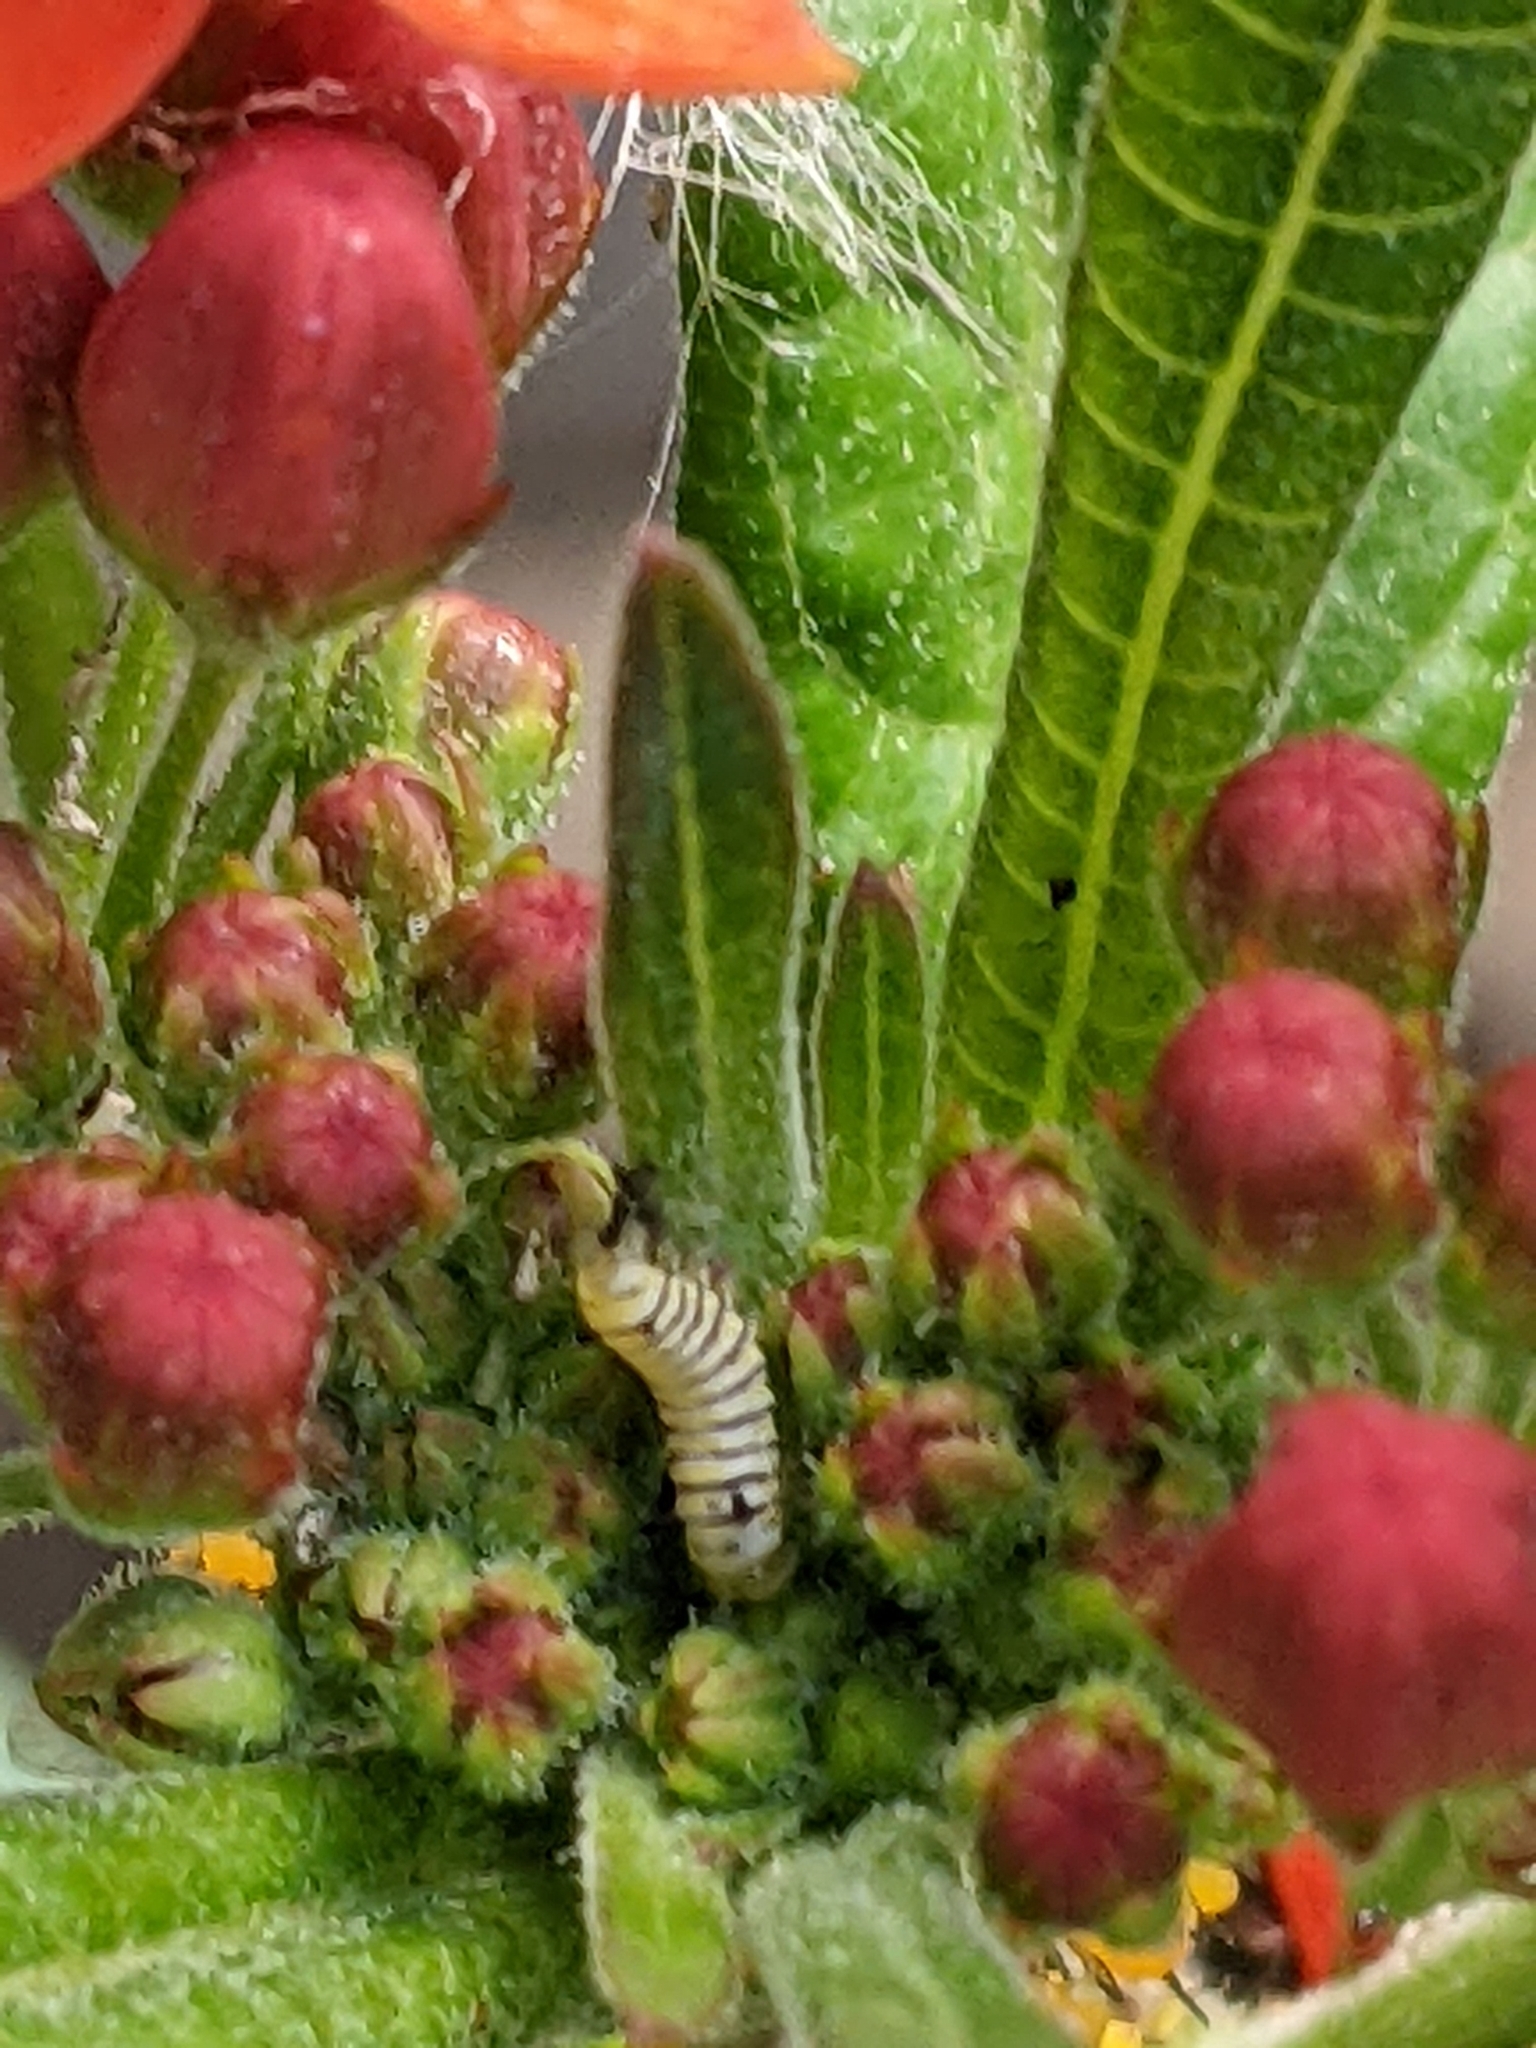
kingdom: Animalia
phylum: Arthropoda
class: Insecta
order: Lepidoptera
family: Nymphalidae
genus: Danaus
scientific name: Danaus plexippus
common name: Monarch
